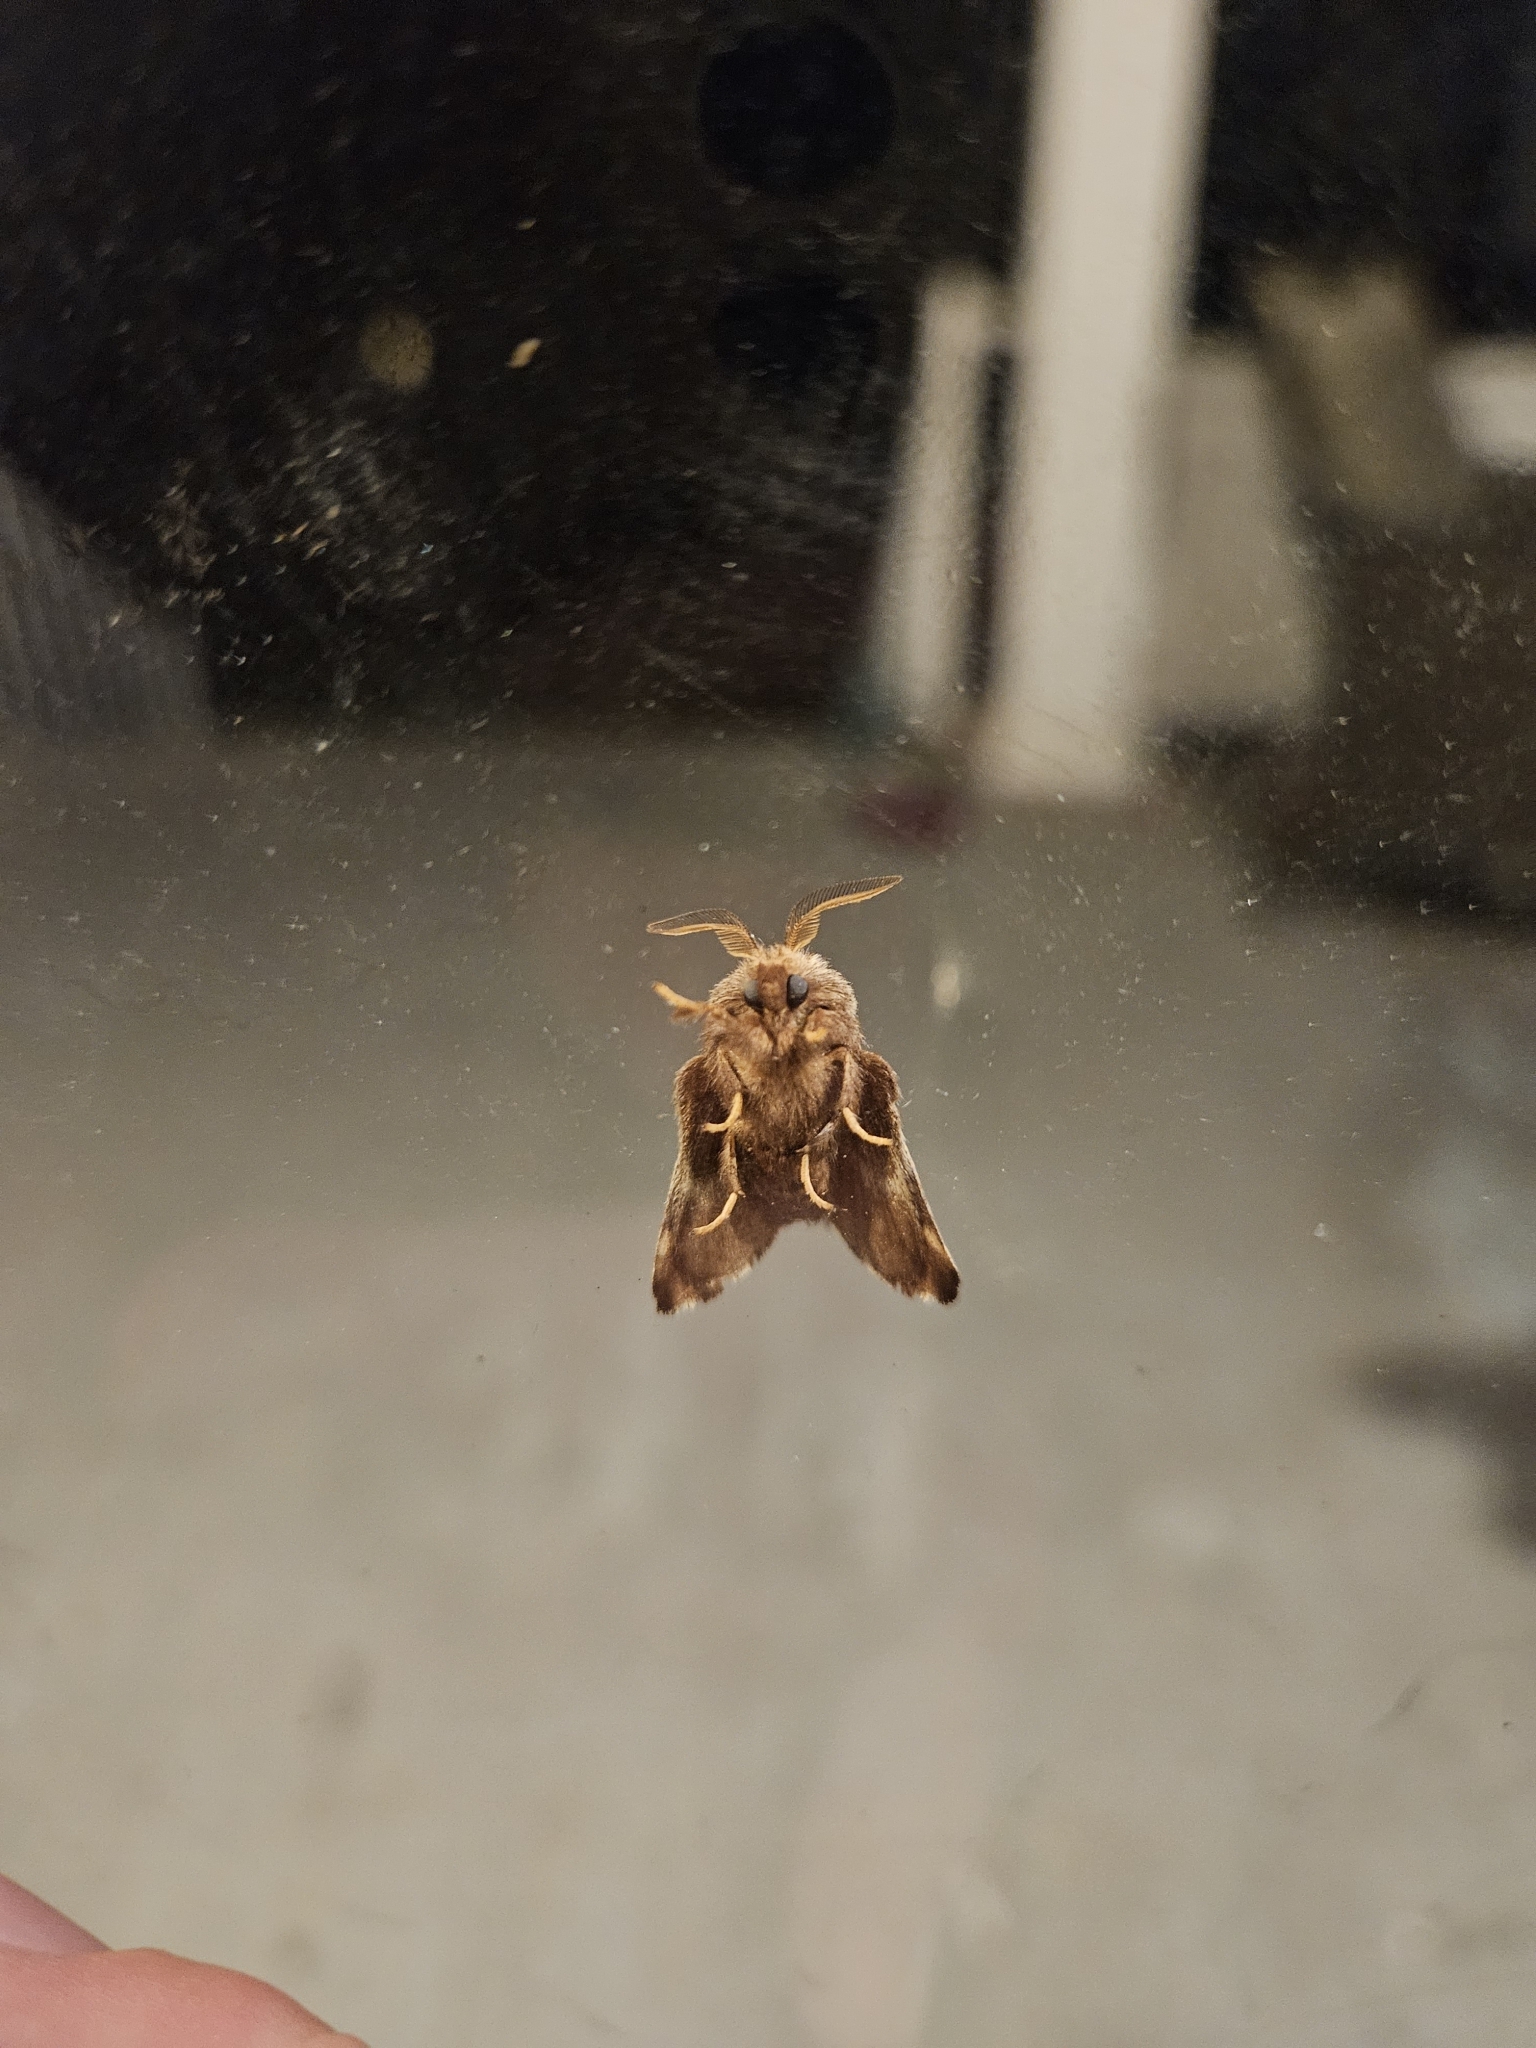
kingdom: Animalia
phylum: Arthropoda
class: Insecta
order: Lepidoptera
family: Lasiocampidae
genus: Malacosoma
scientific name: Malacosoma americana
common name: Eastern tent caterpillar moth
